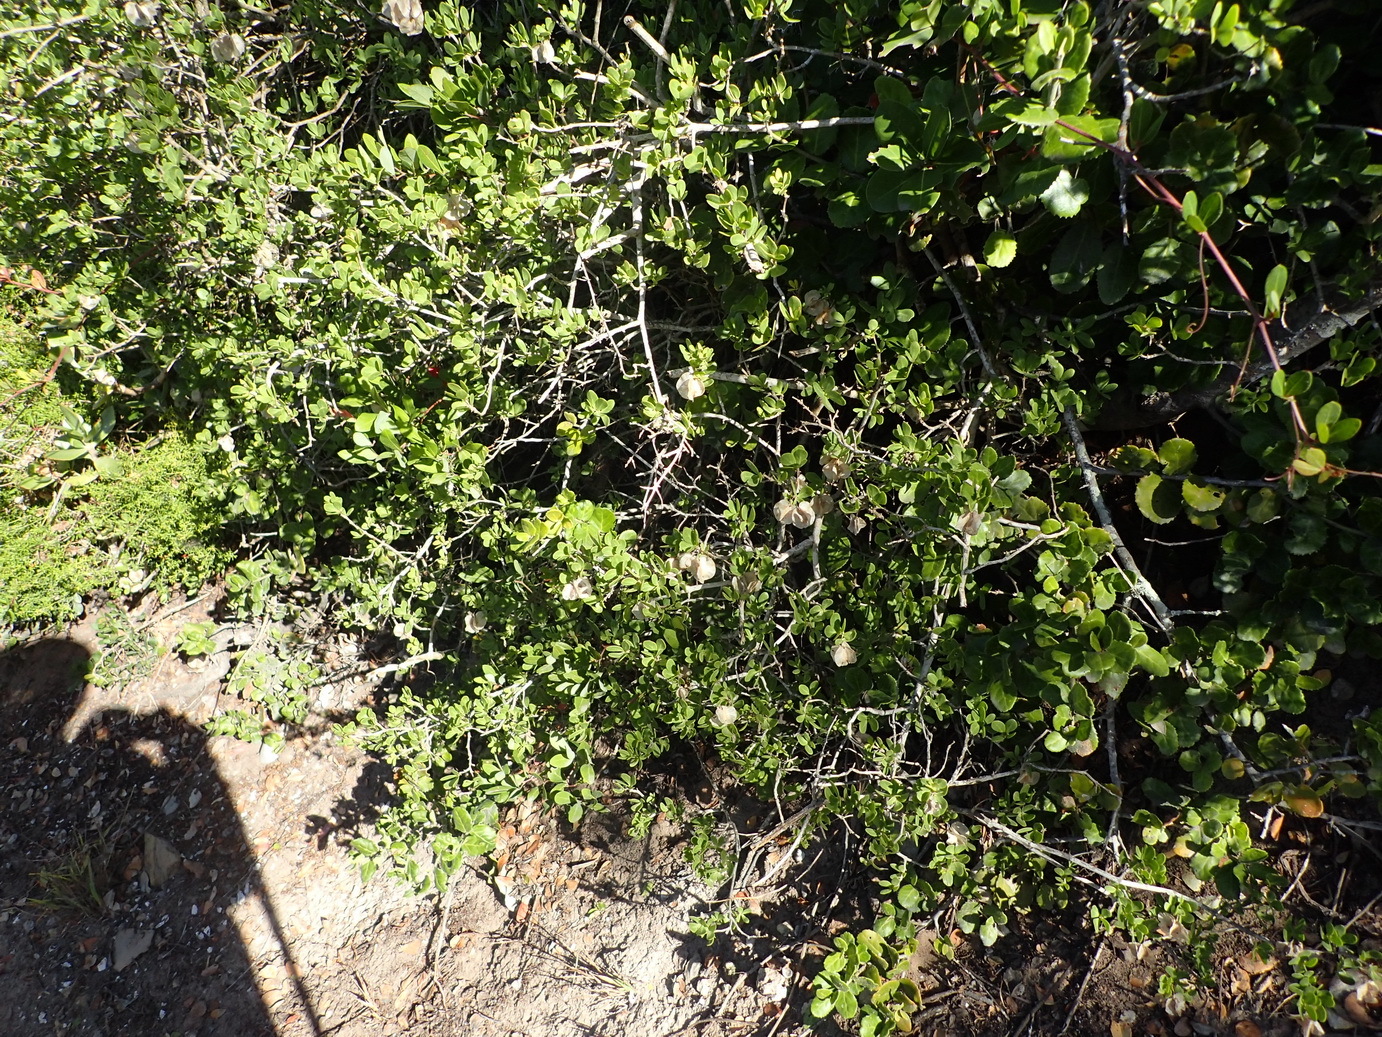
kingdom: Plantae
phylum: Tracheophyta
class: Magnoliopsida
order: Zygophyllales
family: Zygophyllaceae
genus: Roepera
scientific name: Roepera morgsana
